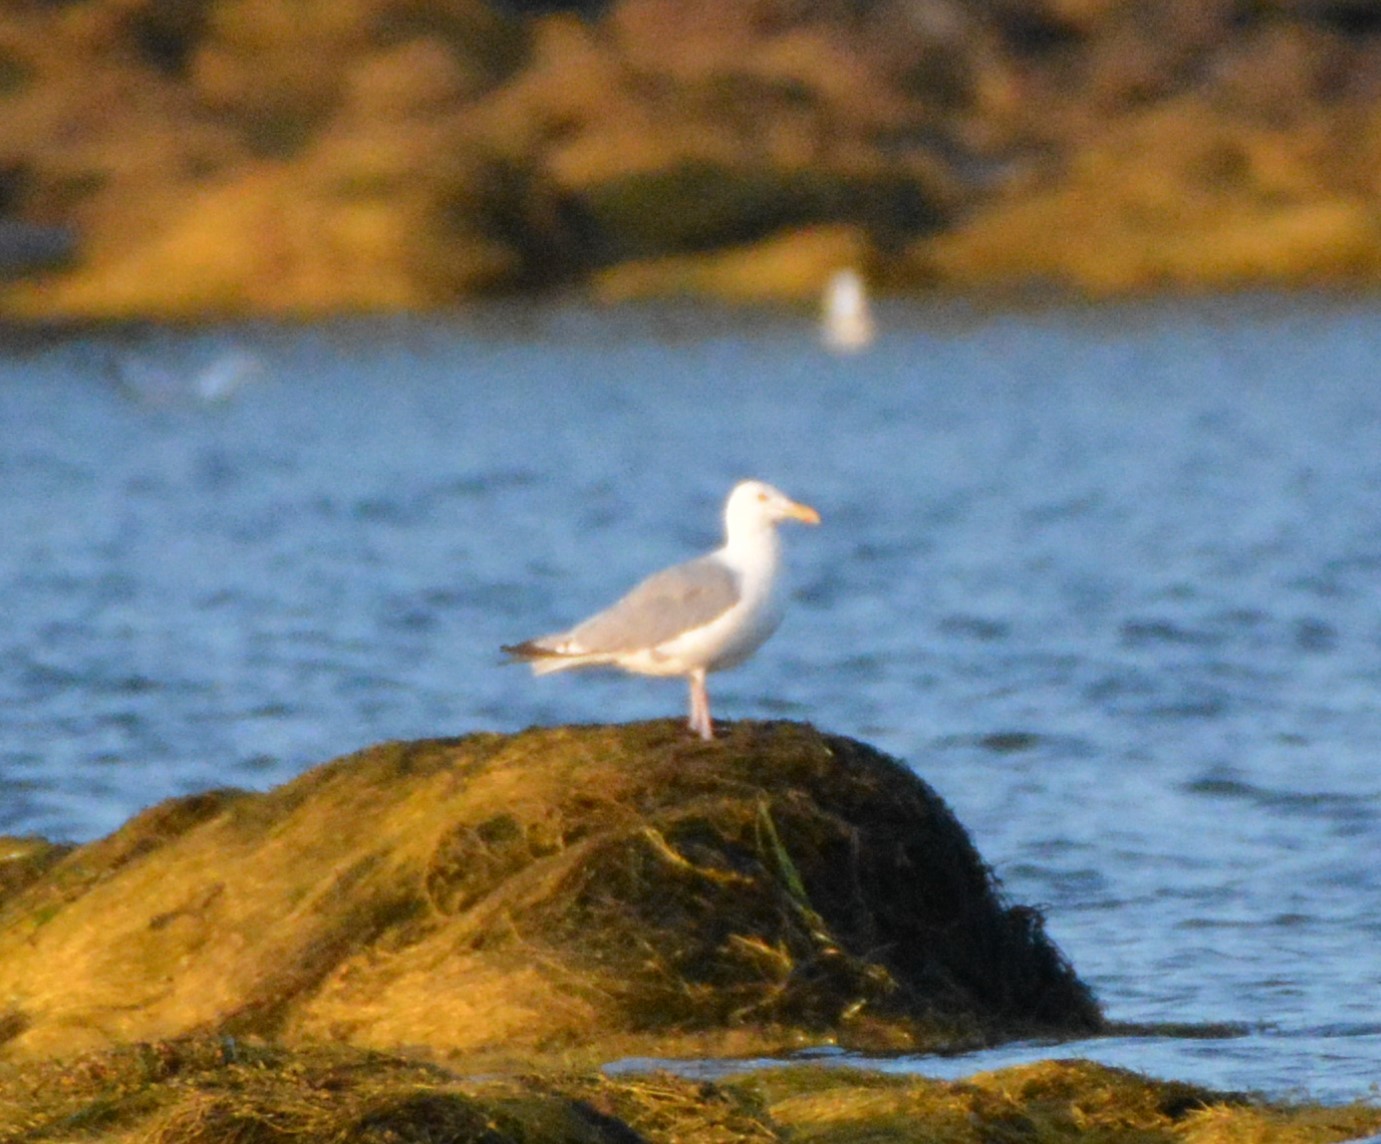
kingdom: Animalia
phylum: Chordata
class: Aves
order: Charadriiformes
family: Laridae
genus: Larus
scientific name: Larus argentatus
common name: Herring gull
